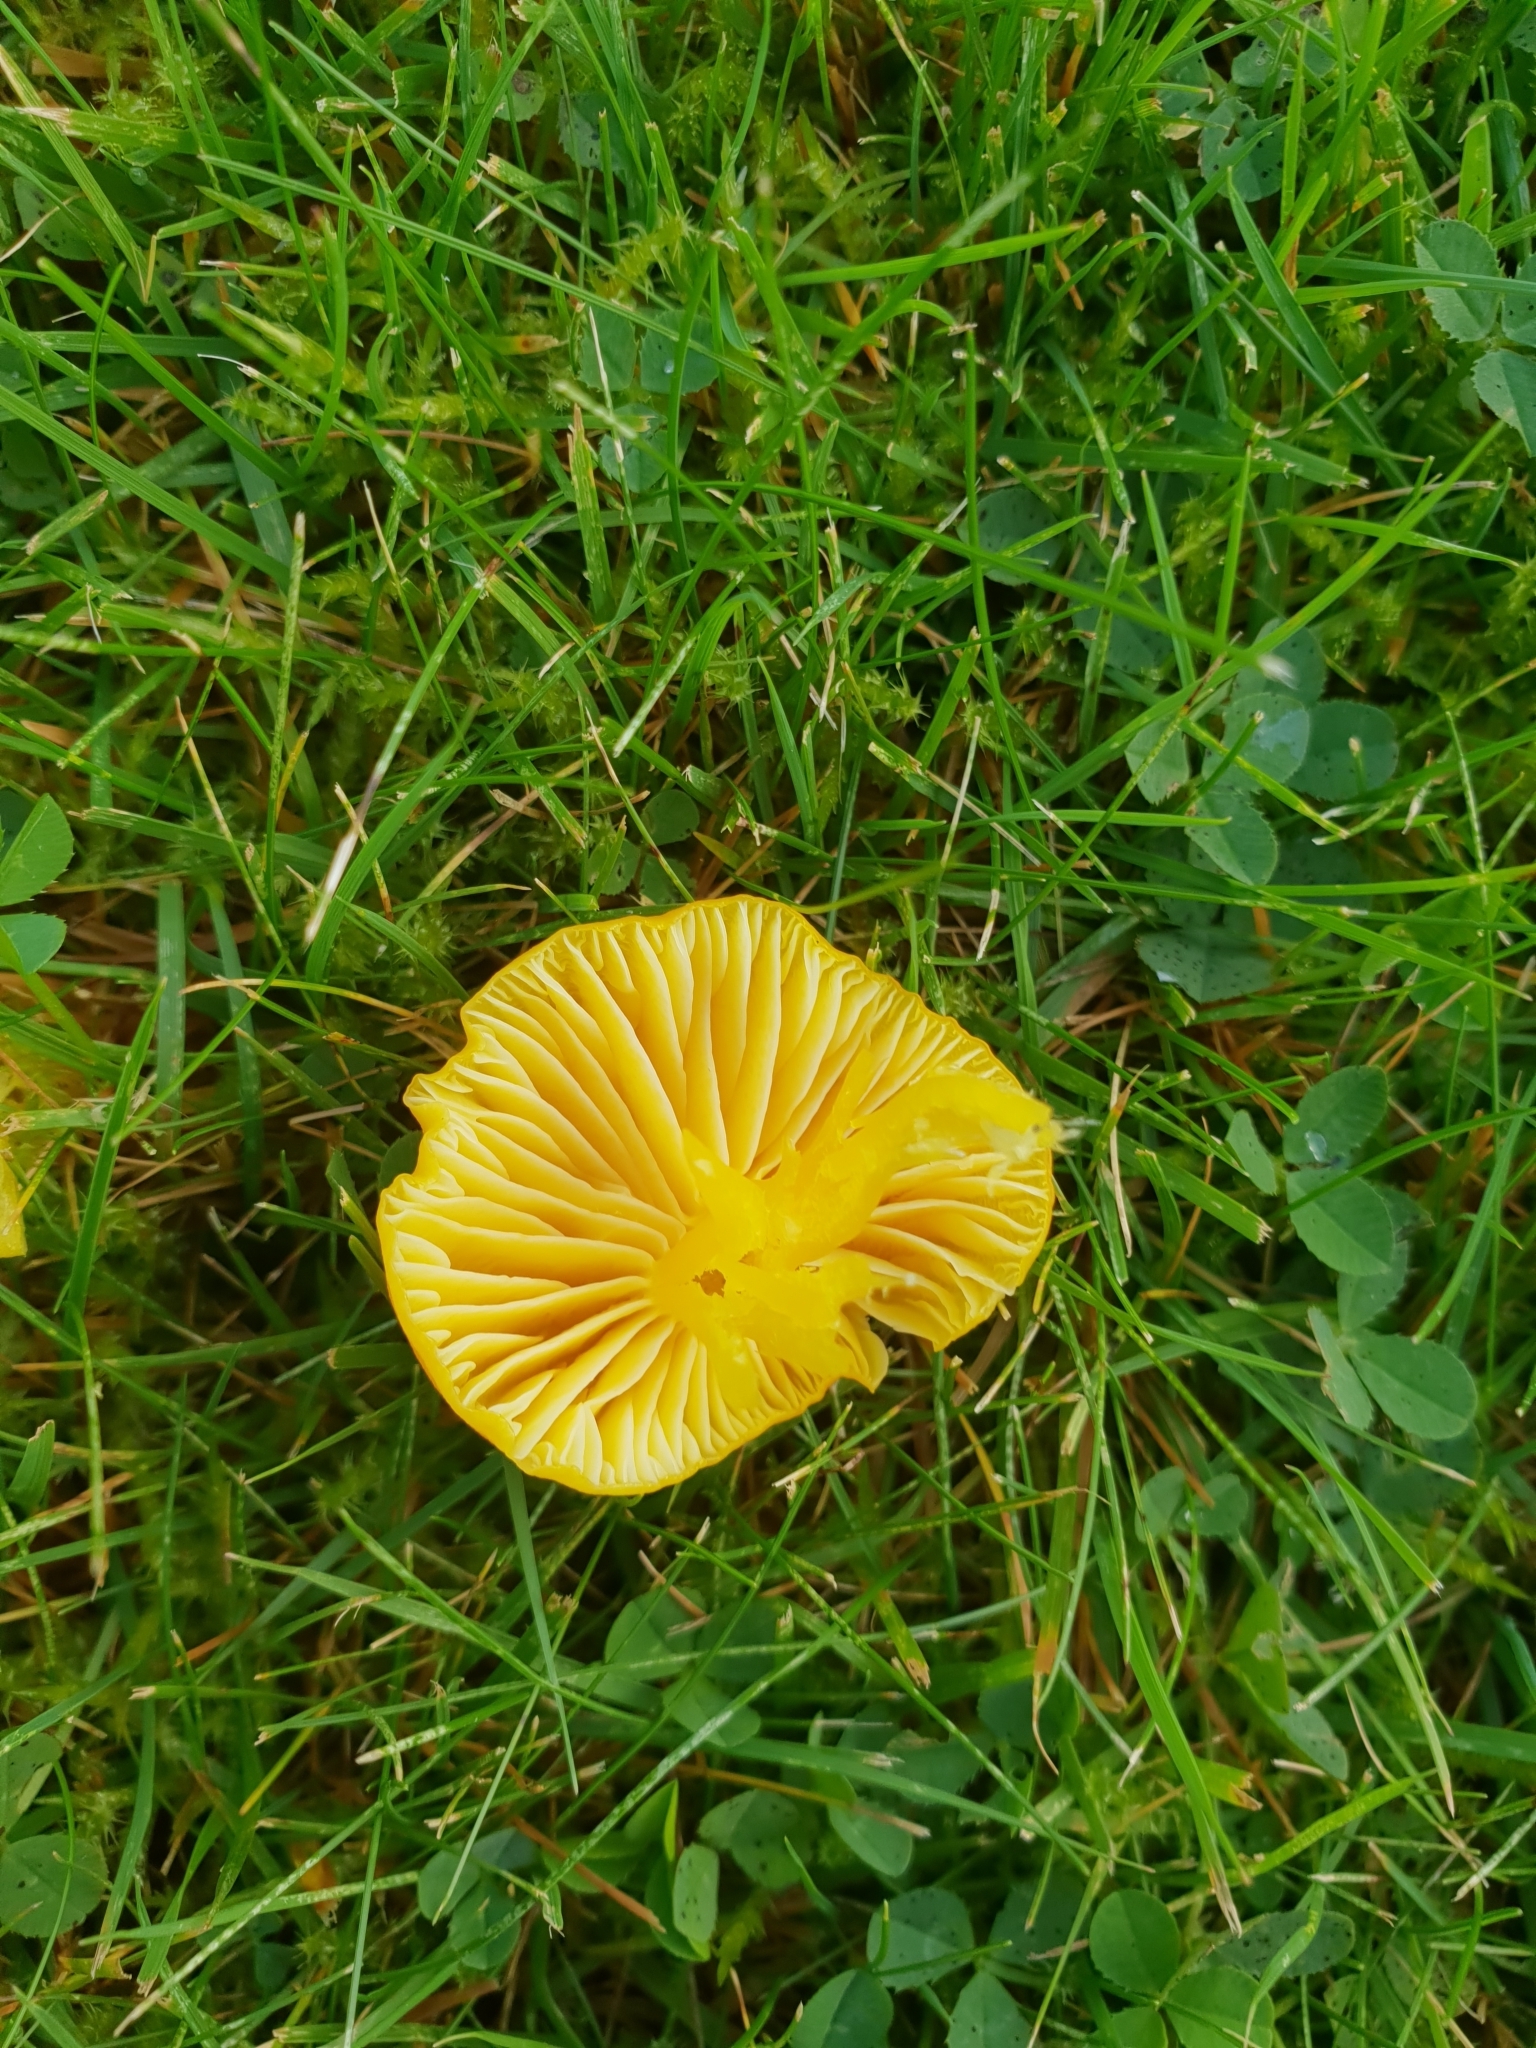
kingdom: Fungi
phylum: Basidiomycota
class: Agaricomycetes
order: Agaricales
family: Hygrophoraceae
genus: Hygrocybe
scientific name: Hygrocybe ceracea
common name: Butter waxcap
